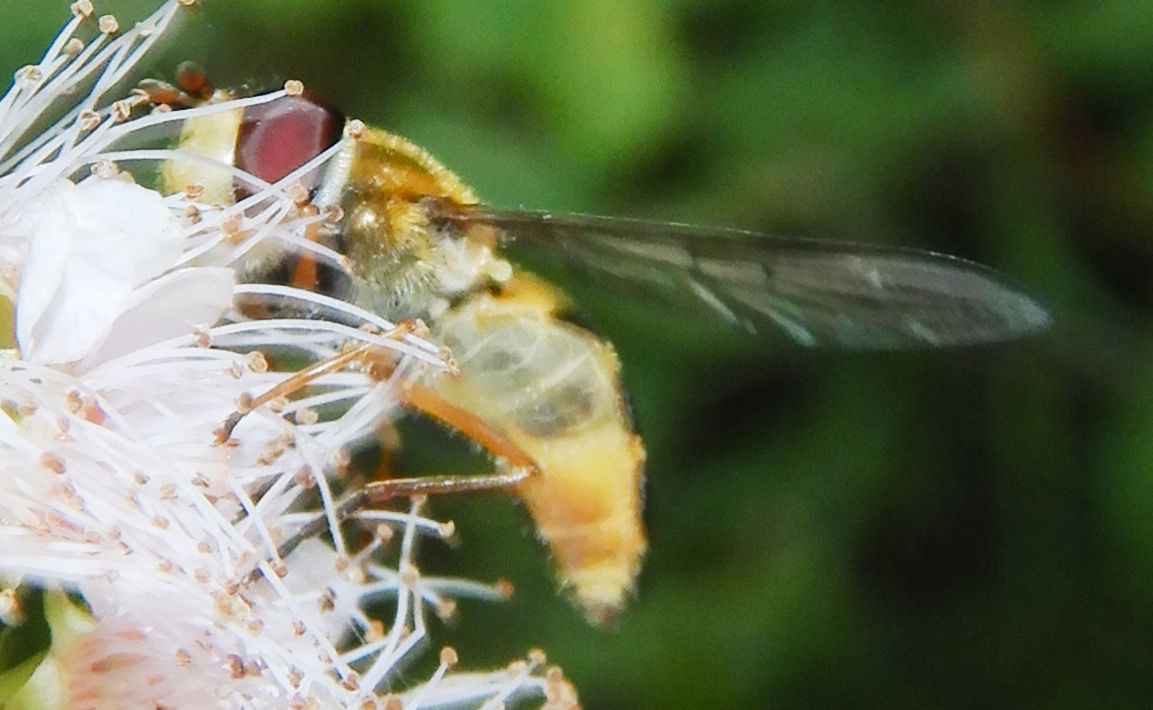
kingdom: Animalia
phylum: Arthropoda
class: Insecta
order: Diptera
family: Syrphidae
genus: Syrphus
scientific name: Syrphus ribesii
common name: Common flower fly
